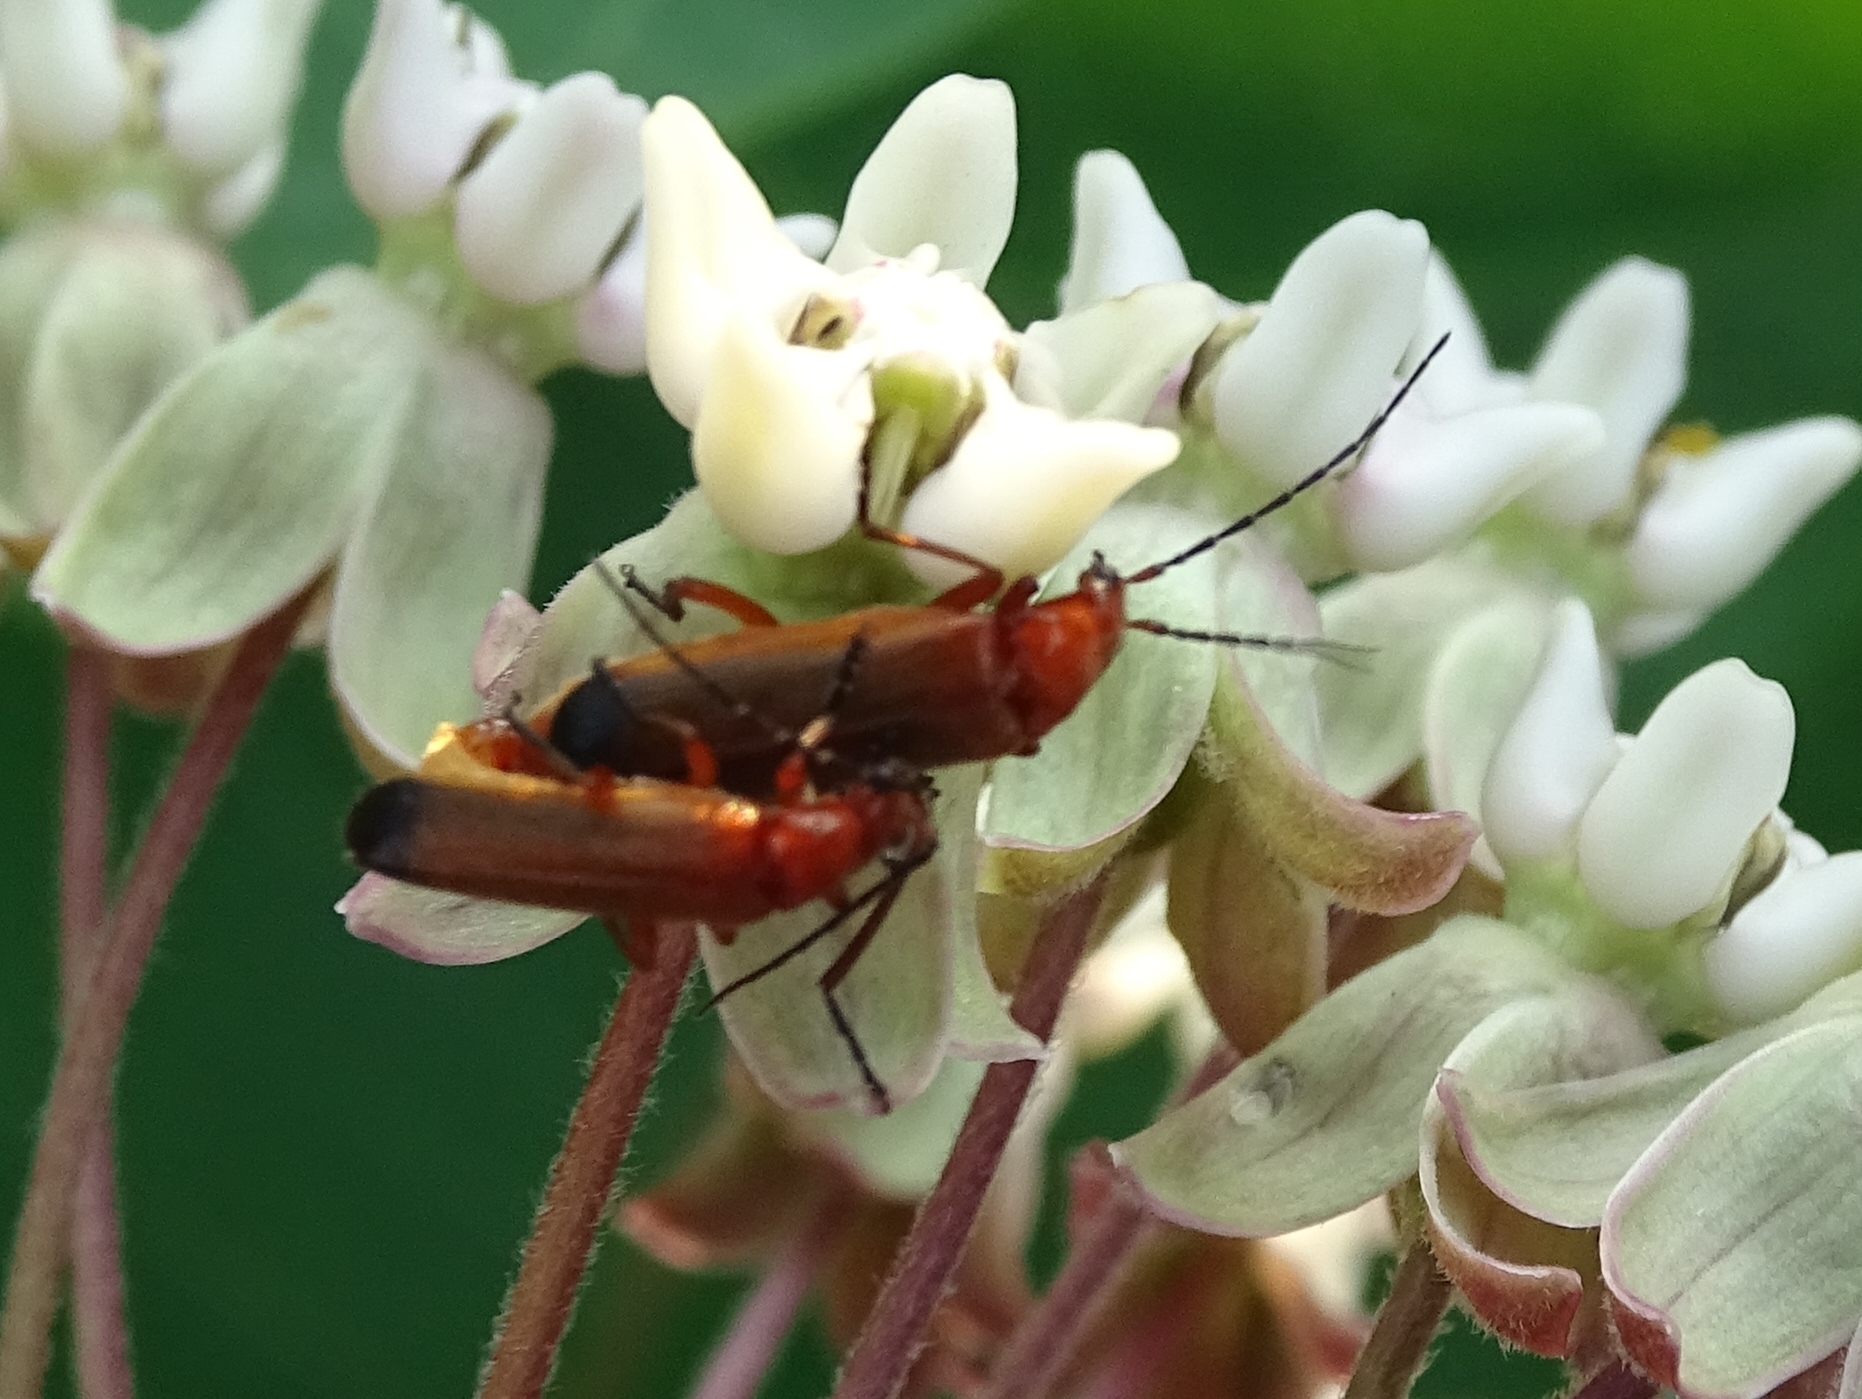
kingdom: Animalia
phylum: Arthropoda
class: Insecta
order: Coleoptera
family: Cantharidae
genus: Rhagonycha
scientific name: Rhagonycha fulva
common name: Common red soldier beetle
